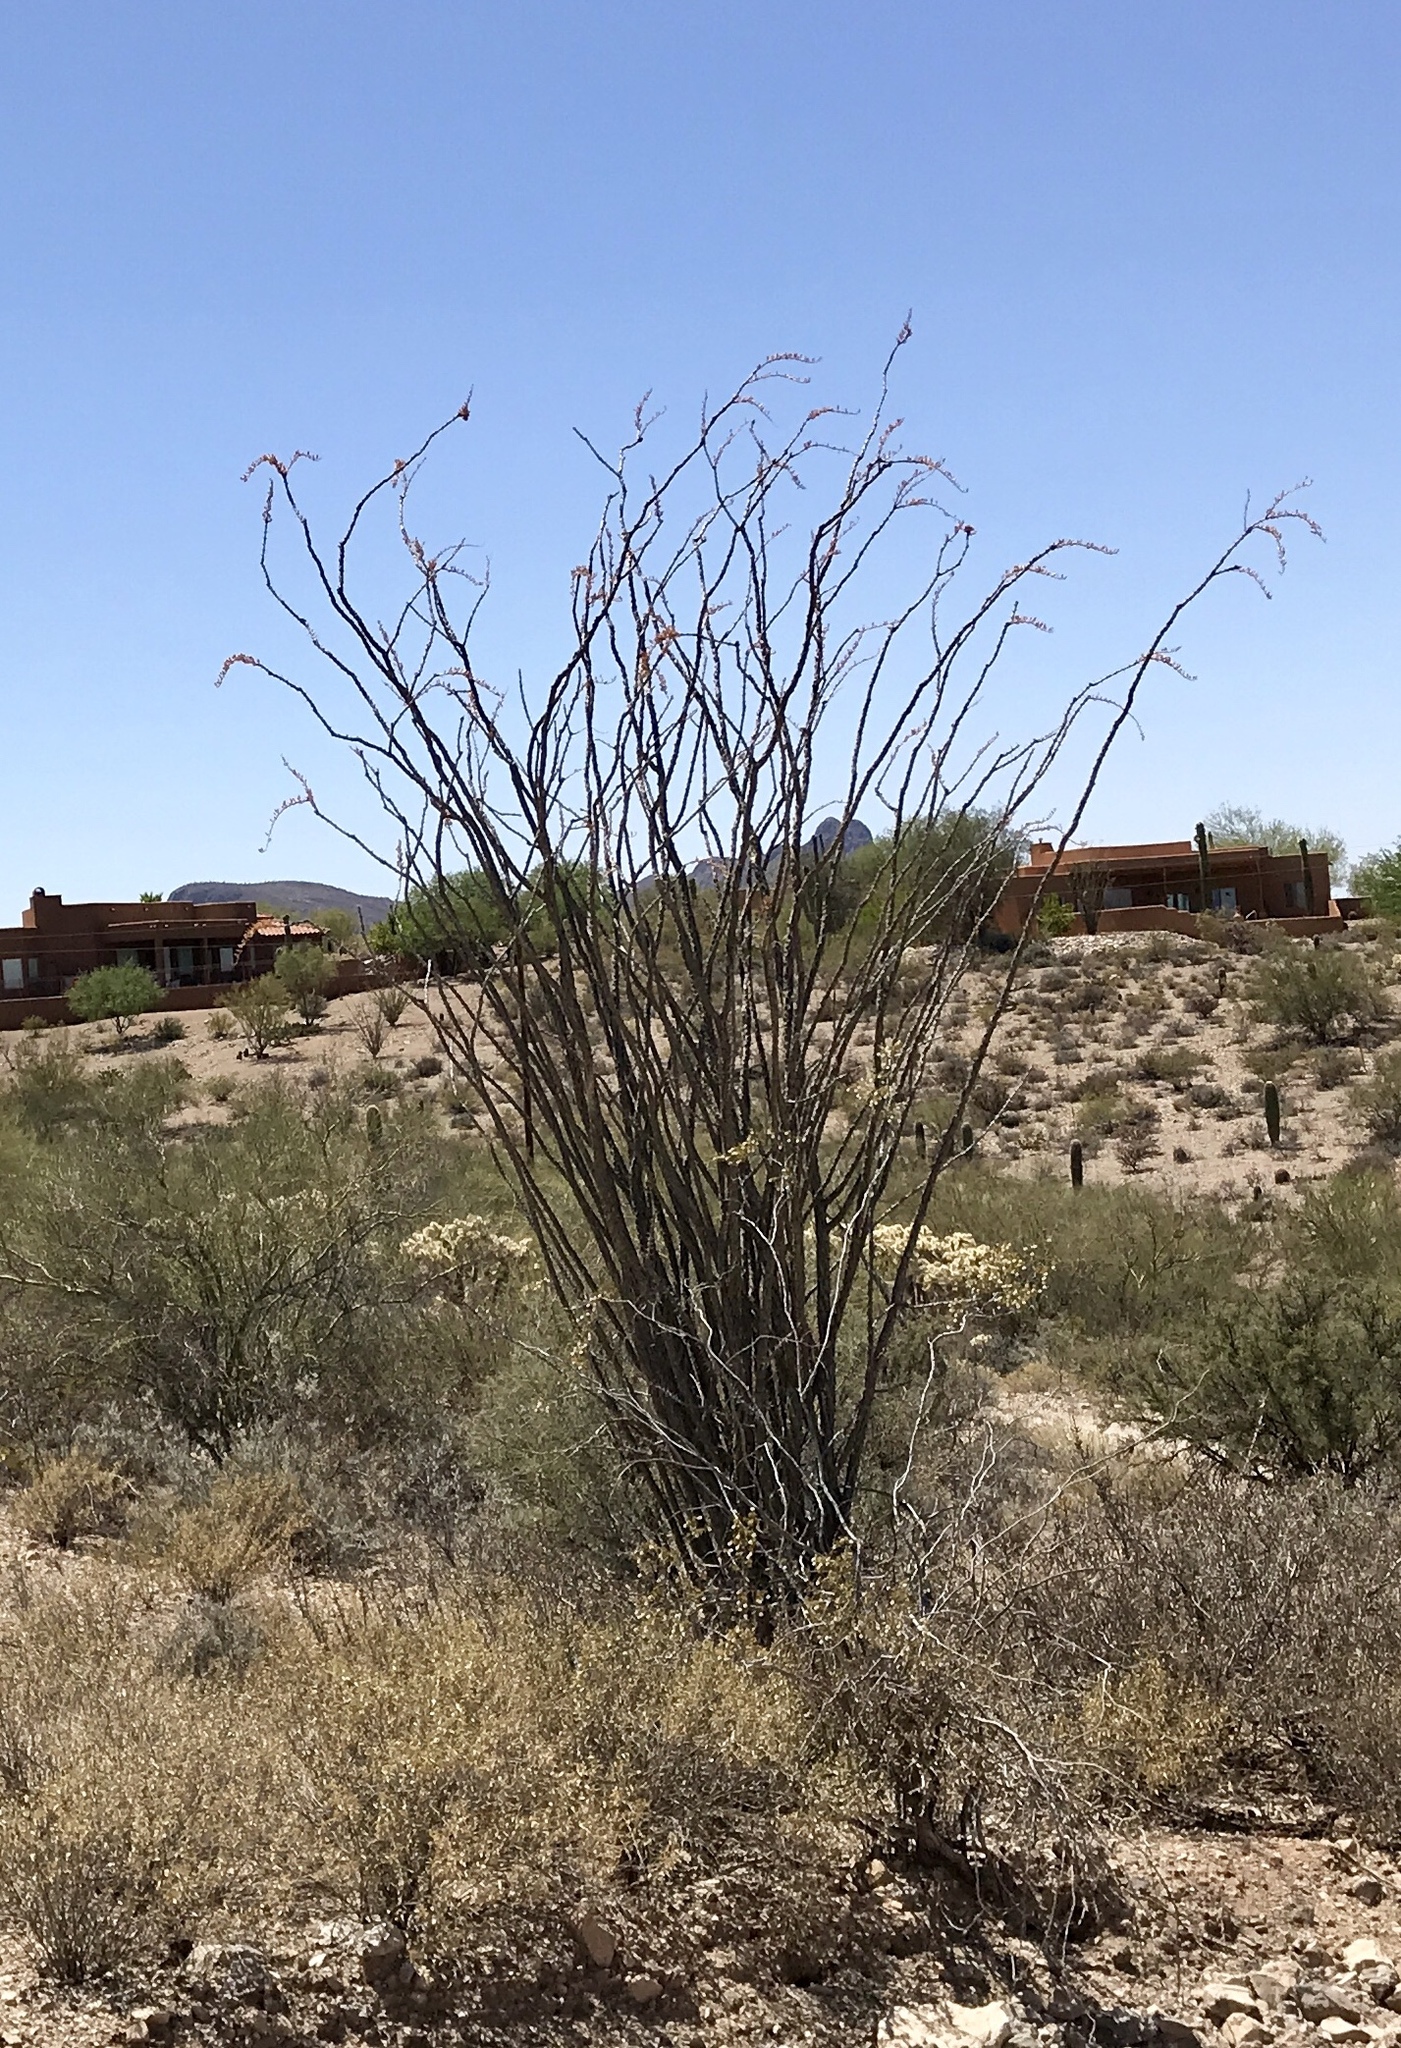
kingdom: Plantae
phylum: Tracheophyta
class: Magnoliopsida
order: Ericales
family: Fouquieriaceae
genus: Fouquieria
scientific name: Fouquieria splendens
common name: Vine-cactus
